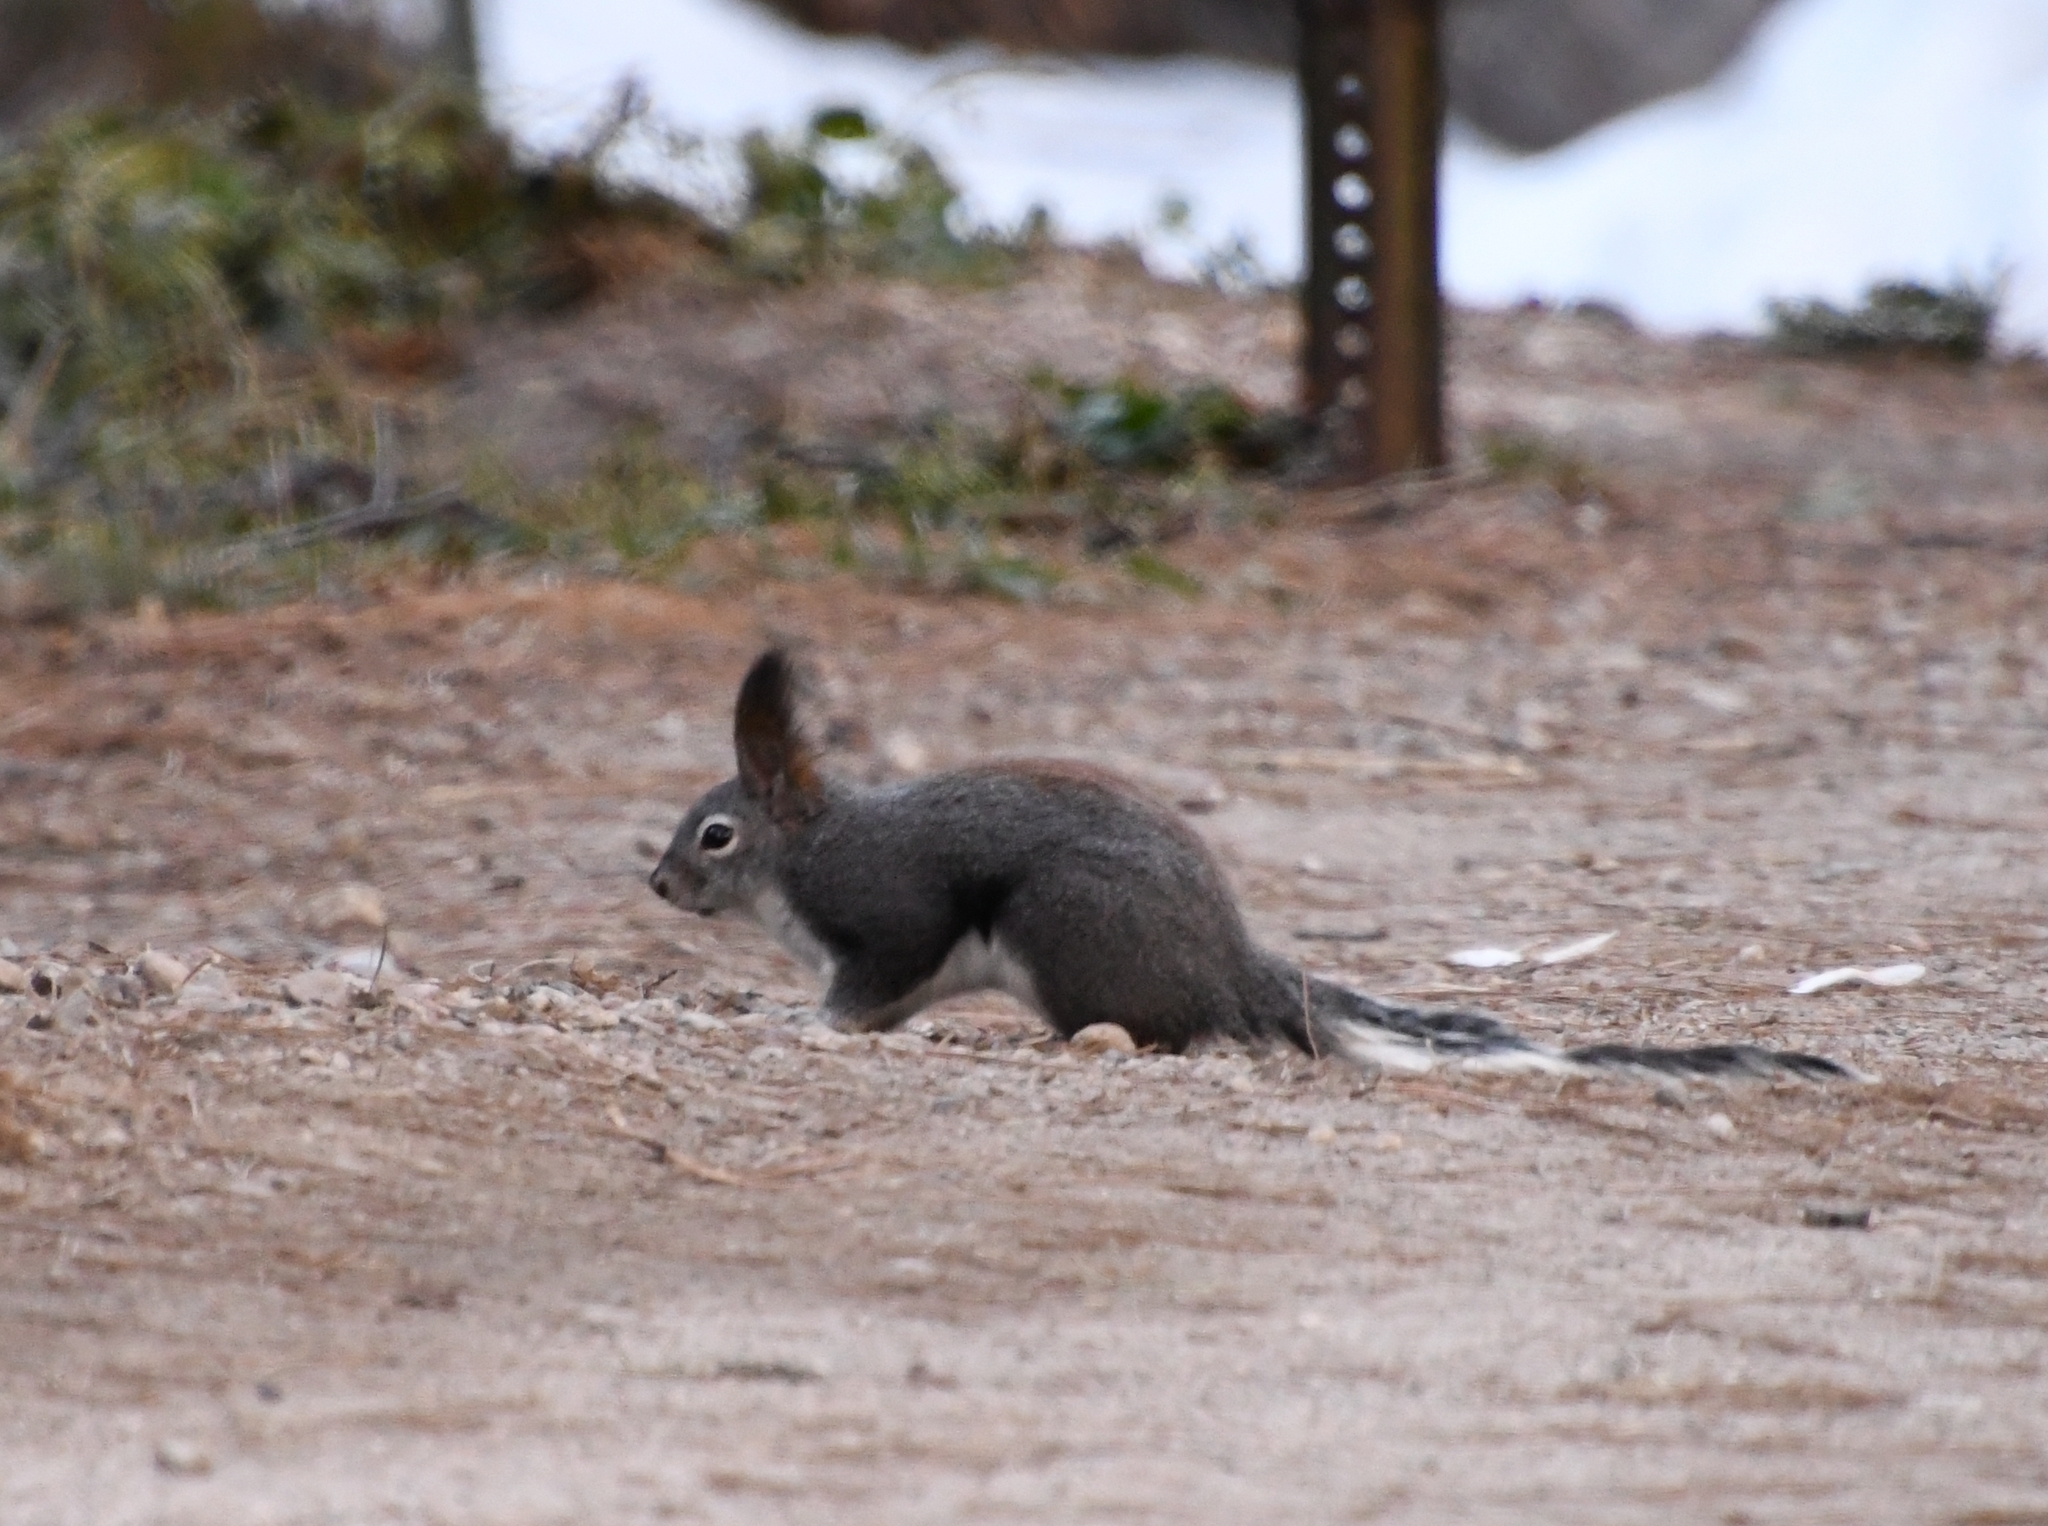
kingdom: Animalia
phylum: Chordata
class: Mammalia
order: Rodentia
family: Sciuridae
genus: Sciurus
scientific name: Sciurus aberti
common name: Abert's squirrel
